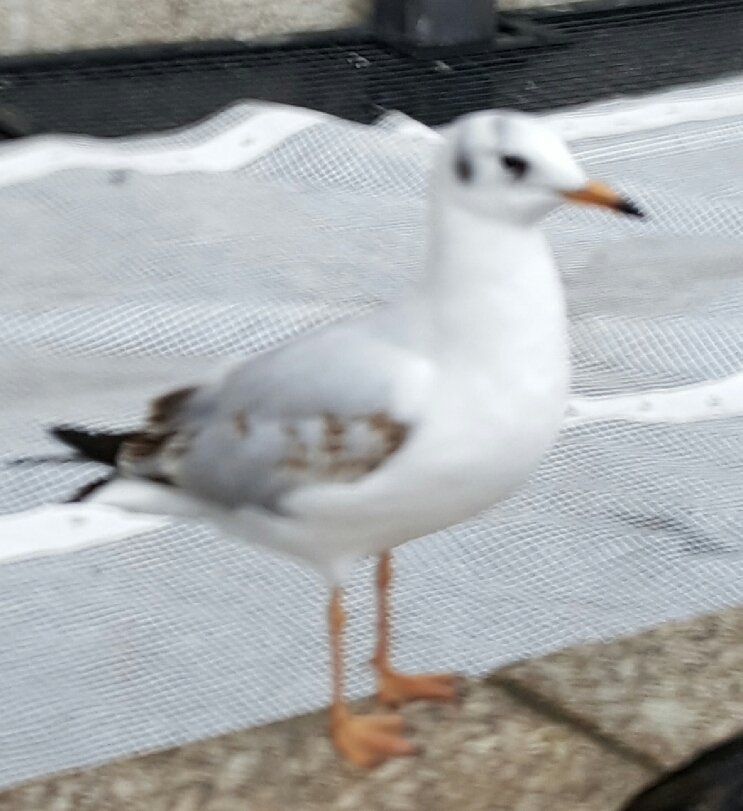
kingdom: Animalia
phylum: Chordata
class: Aves
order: Charadriiformes
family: Laridae
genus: Chroicocephalus
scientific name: Chroicocephalus ridibundus
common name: Black-headed gull
